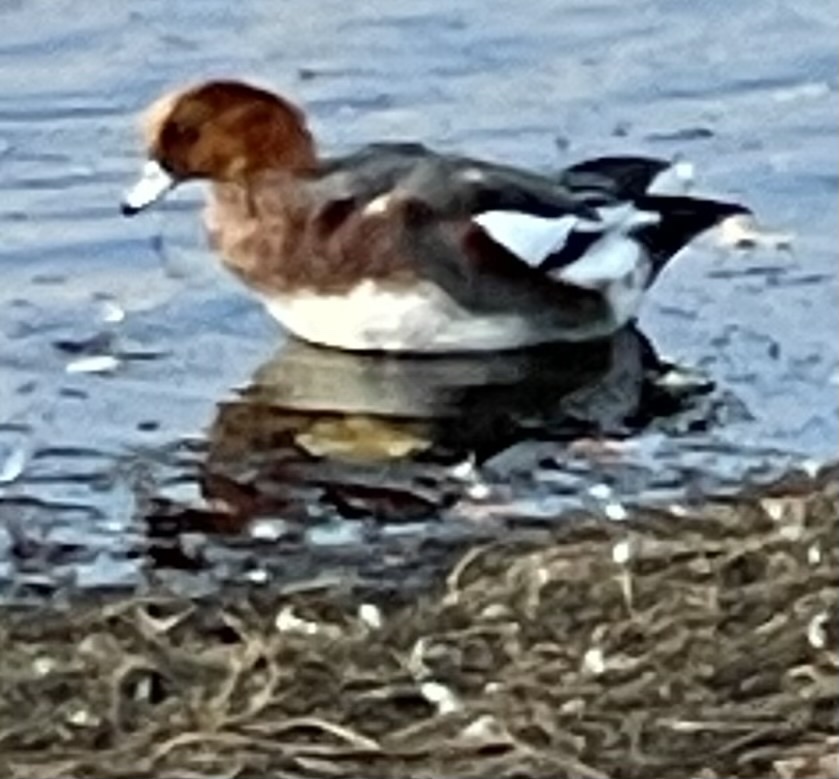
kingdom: Animalia
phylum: Chordata
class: Aves
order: Anseriformes
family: Anatidae
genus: Mareca
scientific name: Mareca penelope
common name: Eurasian wigeon
